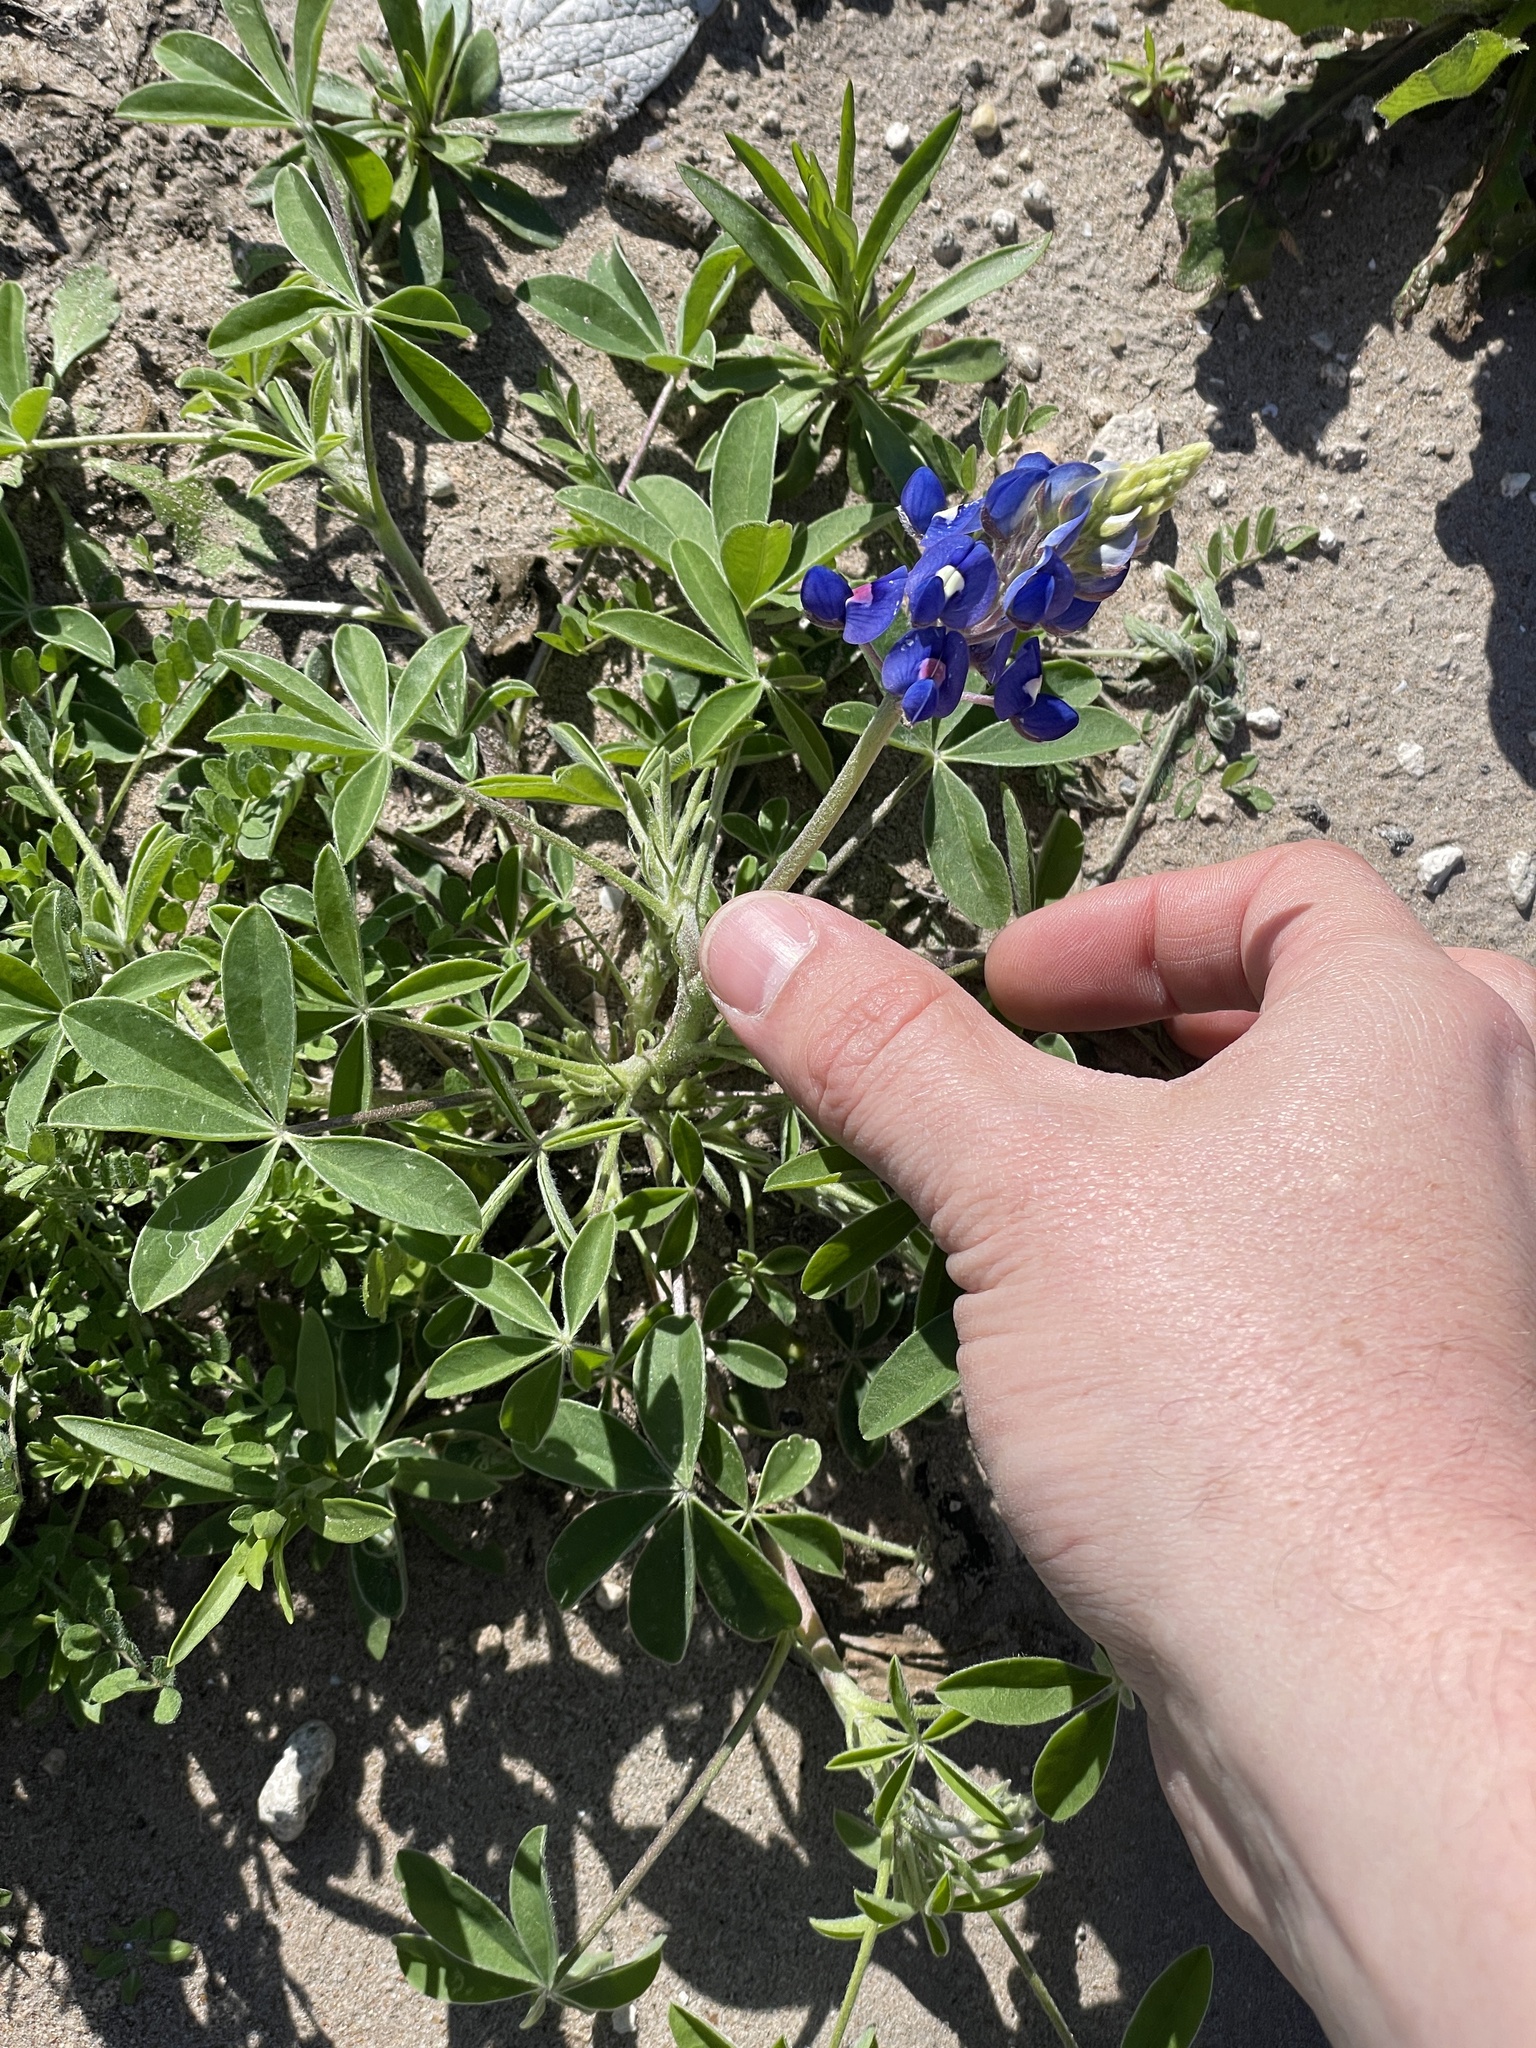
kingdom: Plantae
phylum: Tracheophyta
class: Magnoliopsida
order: Fabales
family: Fabaceae
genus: Lupinus
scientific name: Lupinus texensis
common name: Texas bluebonnet
